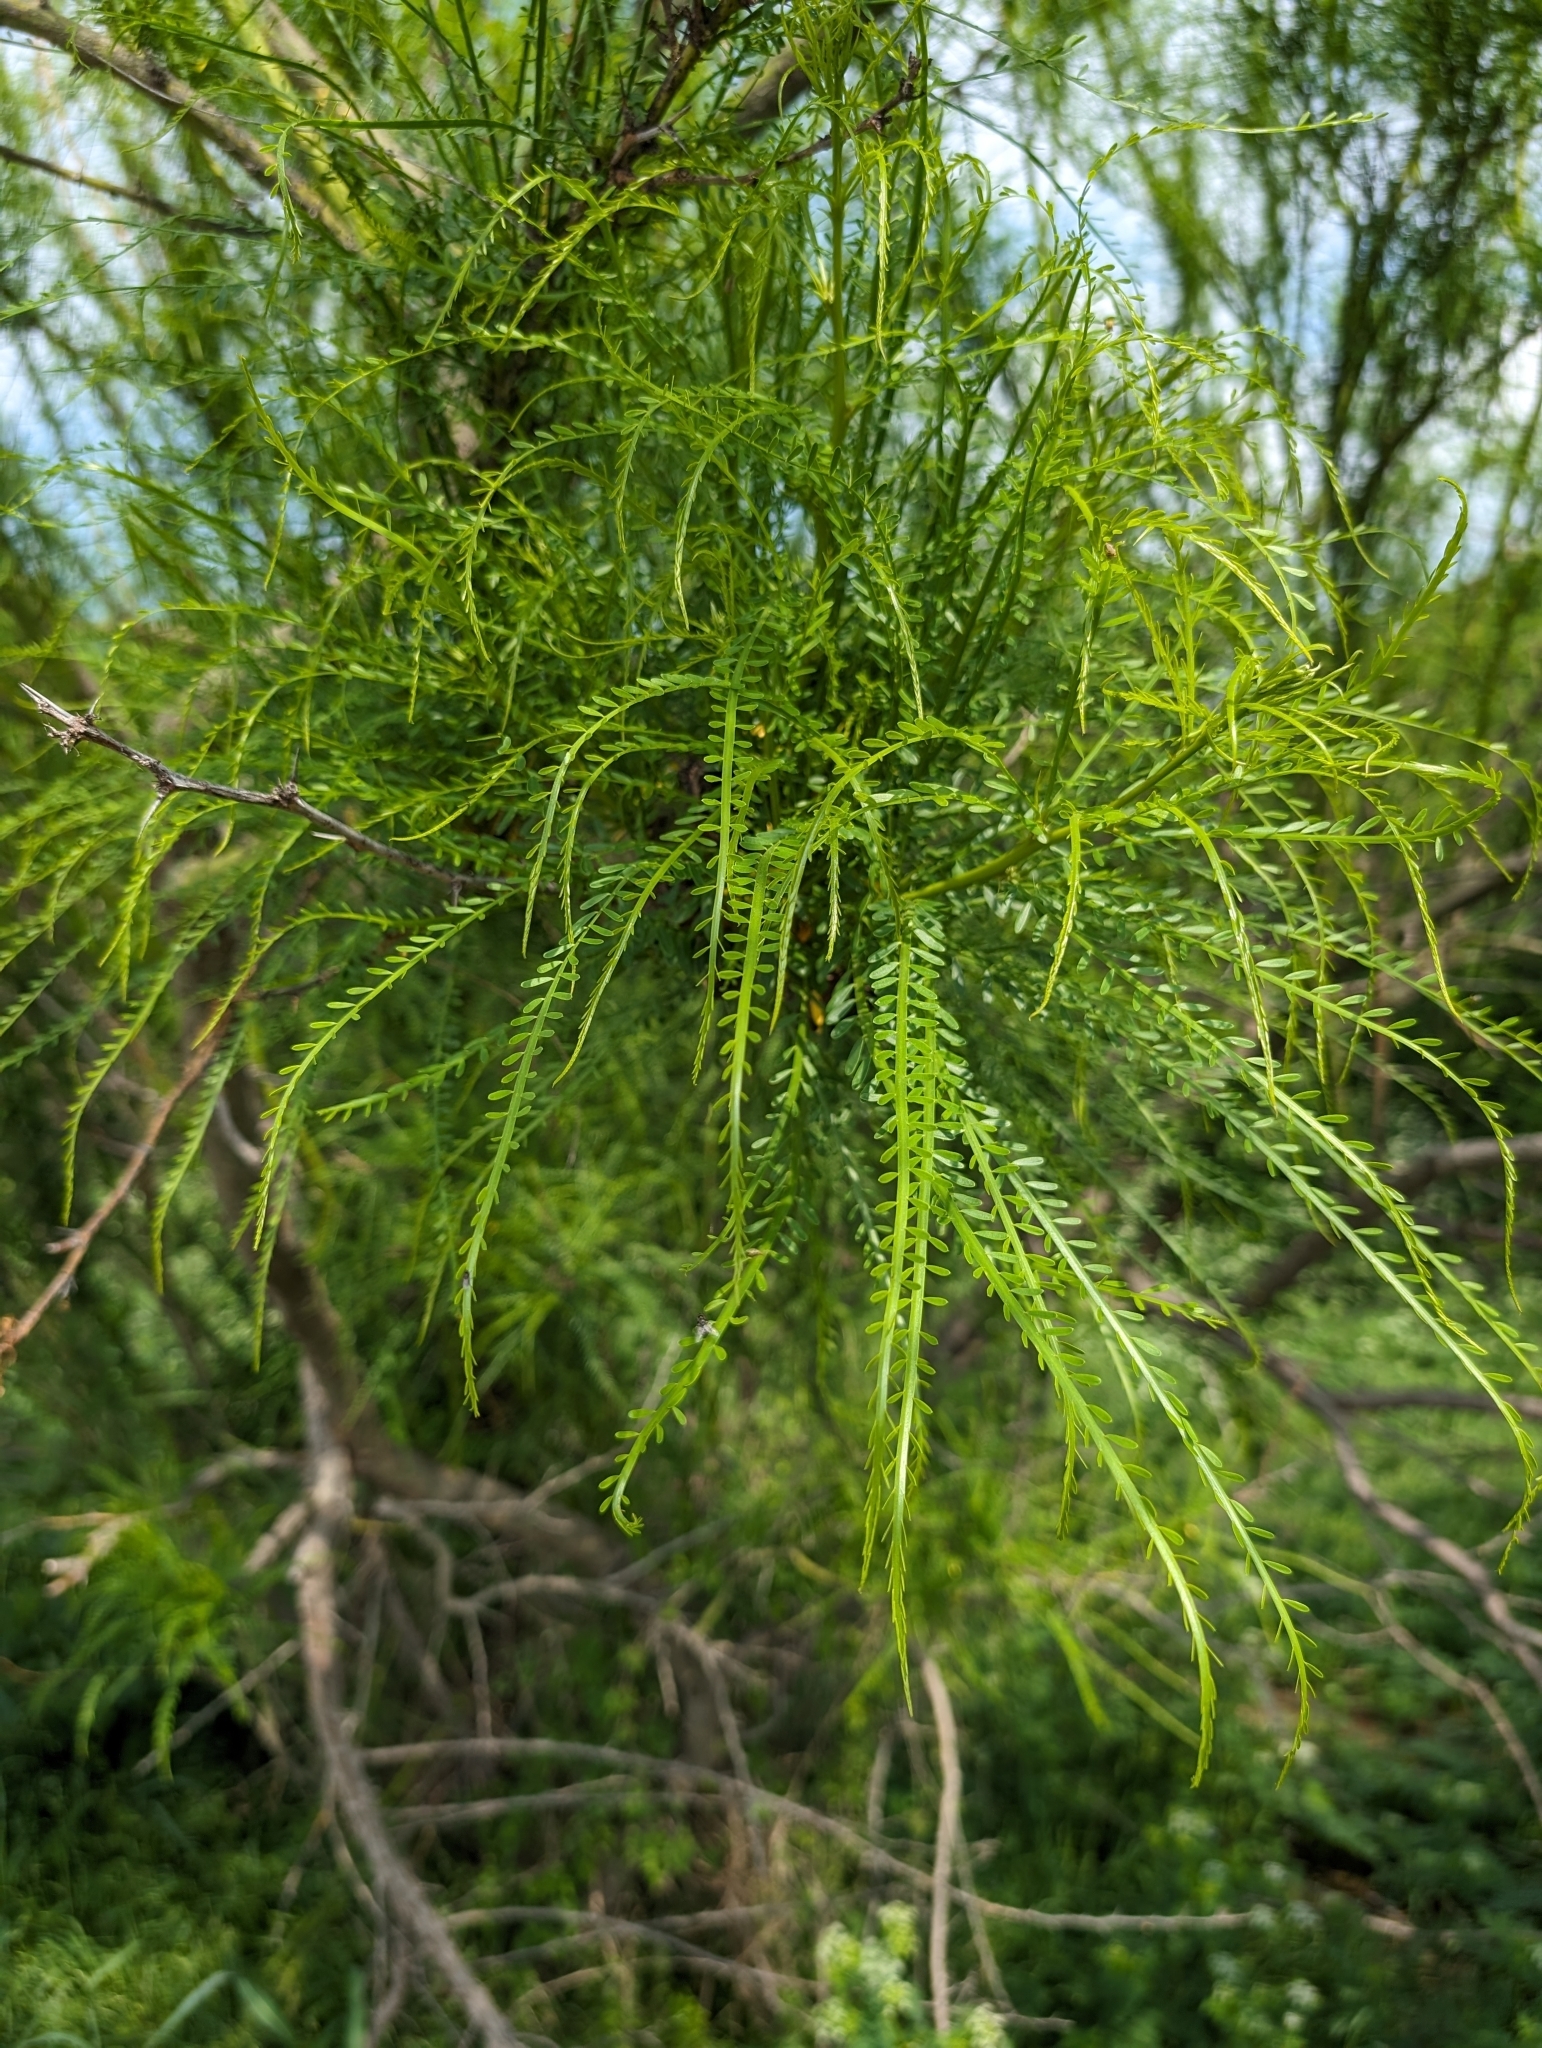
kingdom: Plantae
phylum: Tracheophyta
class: Magnoliopsida
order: Fabales
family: Fabaceae
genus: Parkinsonia
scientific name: Parkinsonia aculeata
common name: Jerusalem thorn
